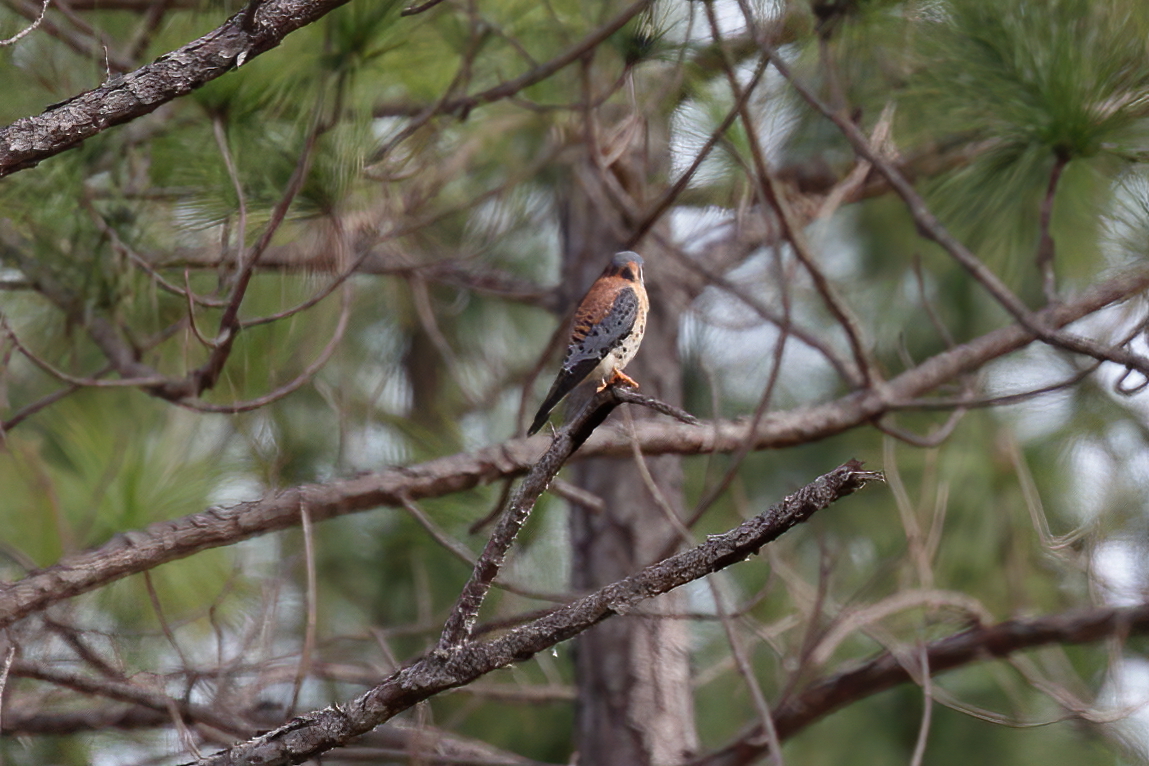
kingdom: Animalia
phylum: Chordata
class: Aves
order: Falconiformes
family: Falconidae
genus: Falco
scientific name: Falco sparverius
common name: American kestrel
